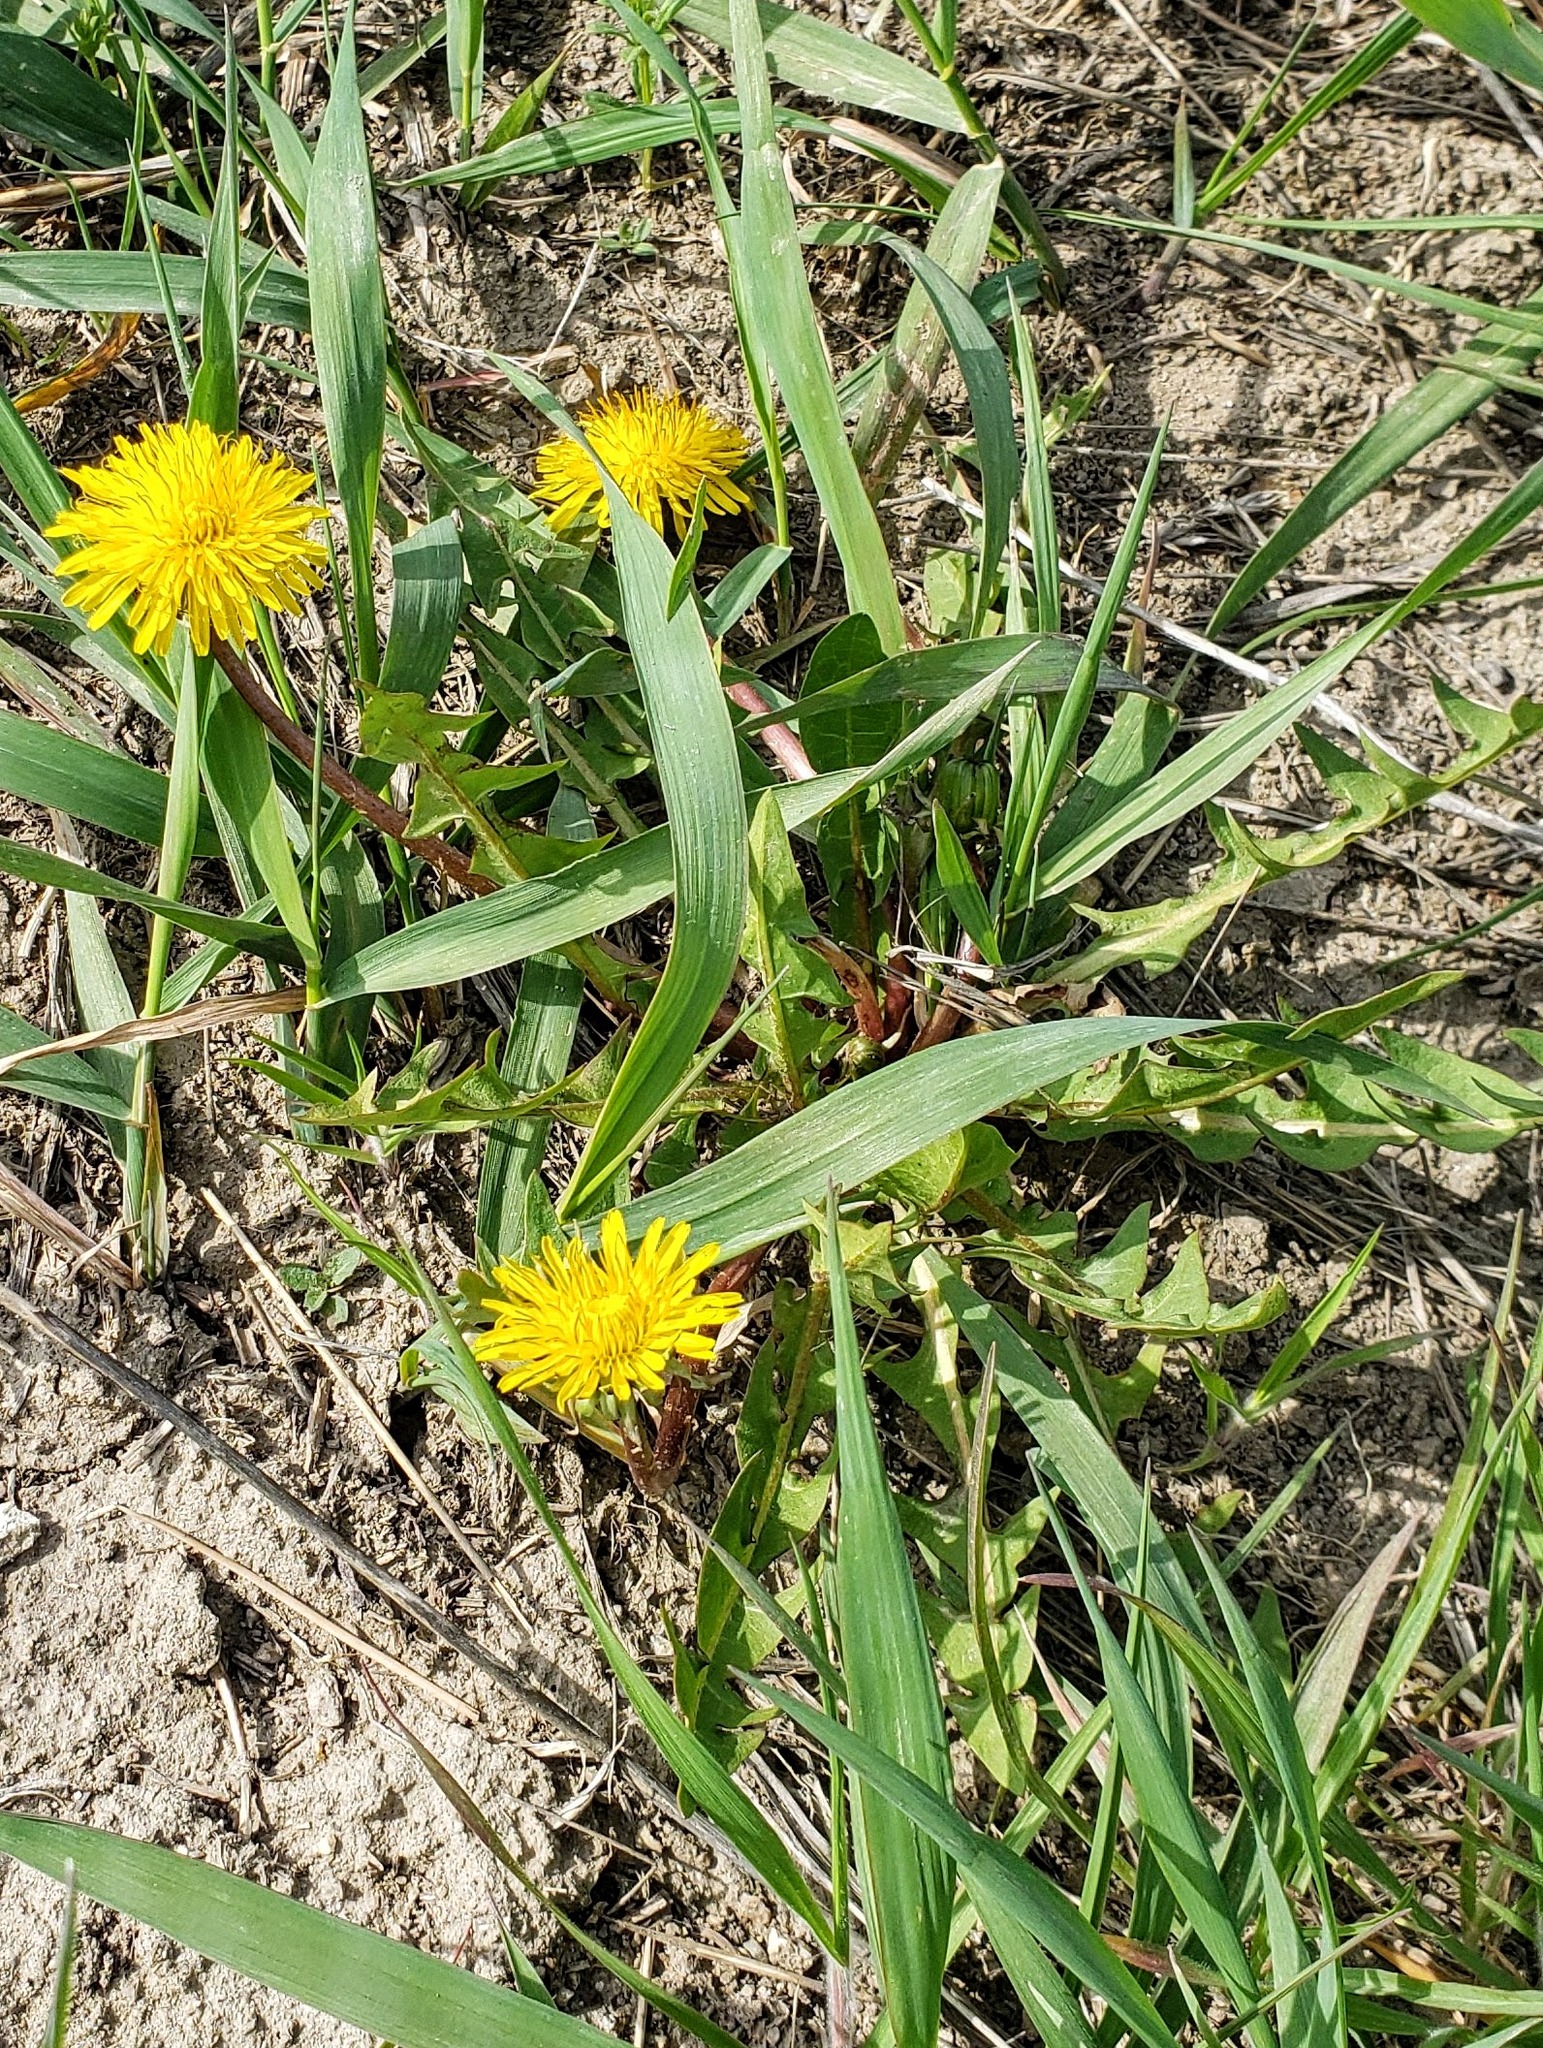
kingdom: Plantae
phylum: Tracheophyta
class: Magnoliopsida
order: Asterales
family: Asteraceae
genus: Taraxacum
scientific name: Taraxacum officinale
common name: Common dandelion
